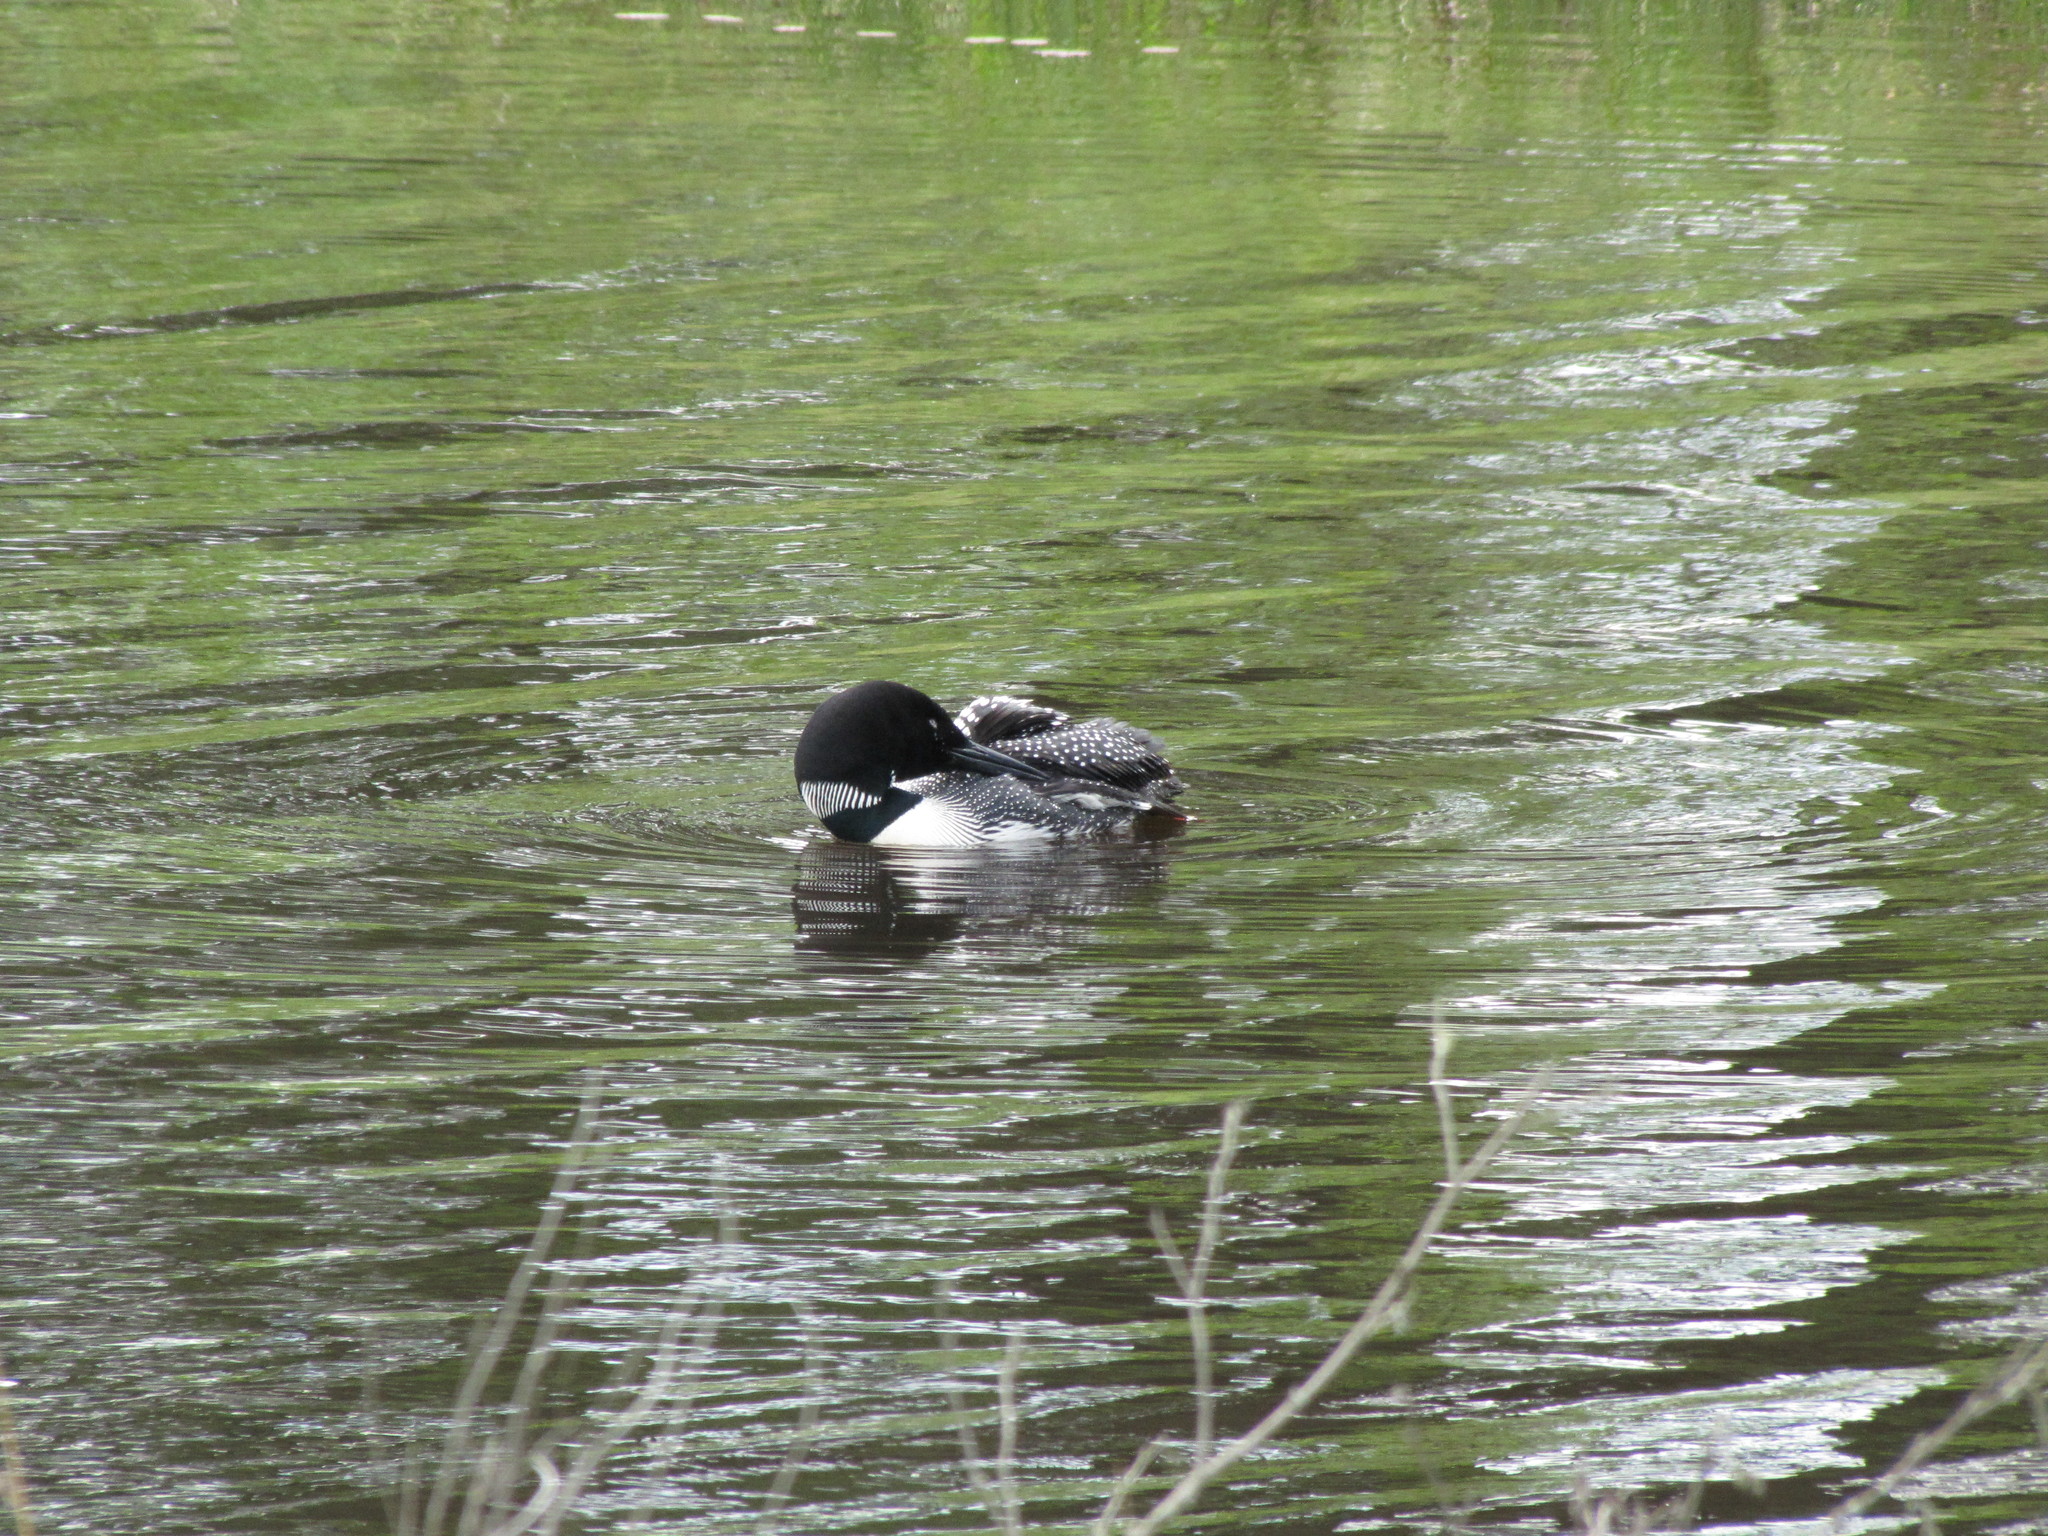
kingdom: Animalia
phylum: Chordata
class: Aves
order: Gaviiformes
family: Gaviidae
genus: Gavia
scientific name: Gavia immer
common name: Common loon
